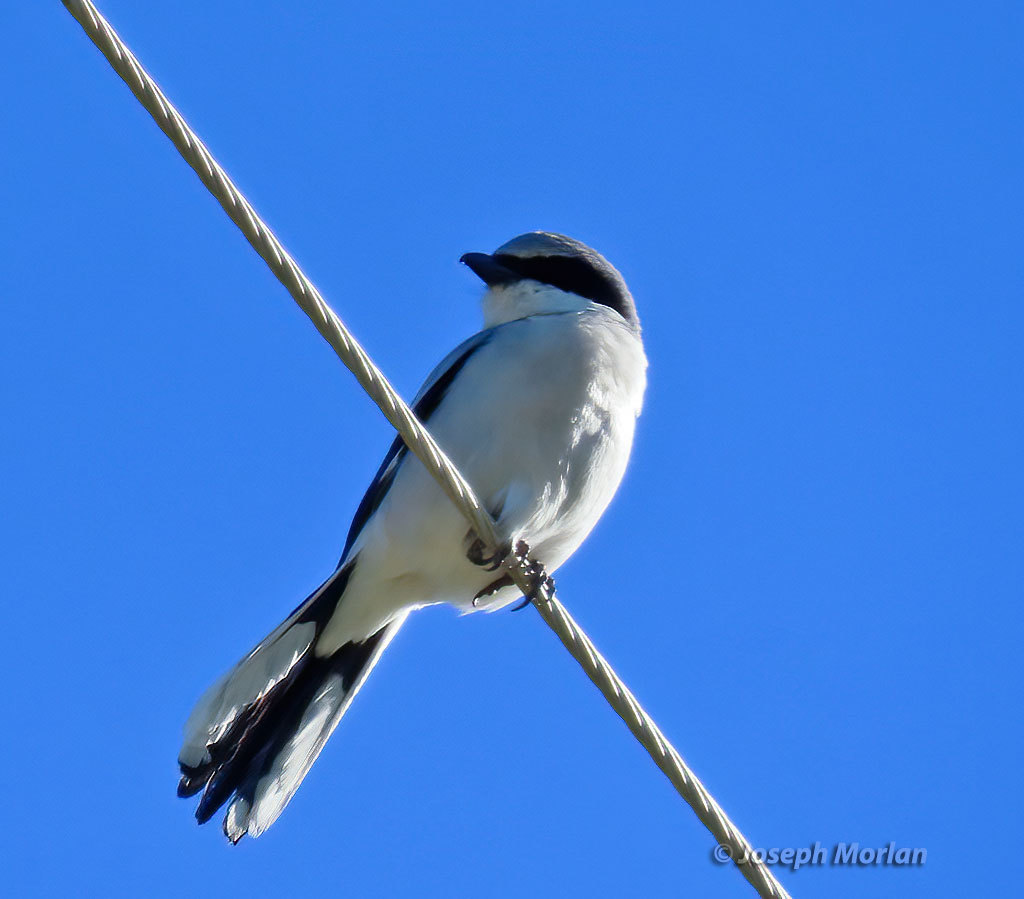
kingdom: Animalia
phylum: Chordata
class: Aves
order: Passeriformes
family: Laniidae
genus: Lanius
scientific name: Lanius ludovicianus
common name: Loggerhead shrike
